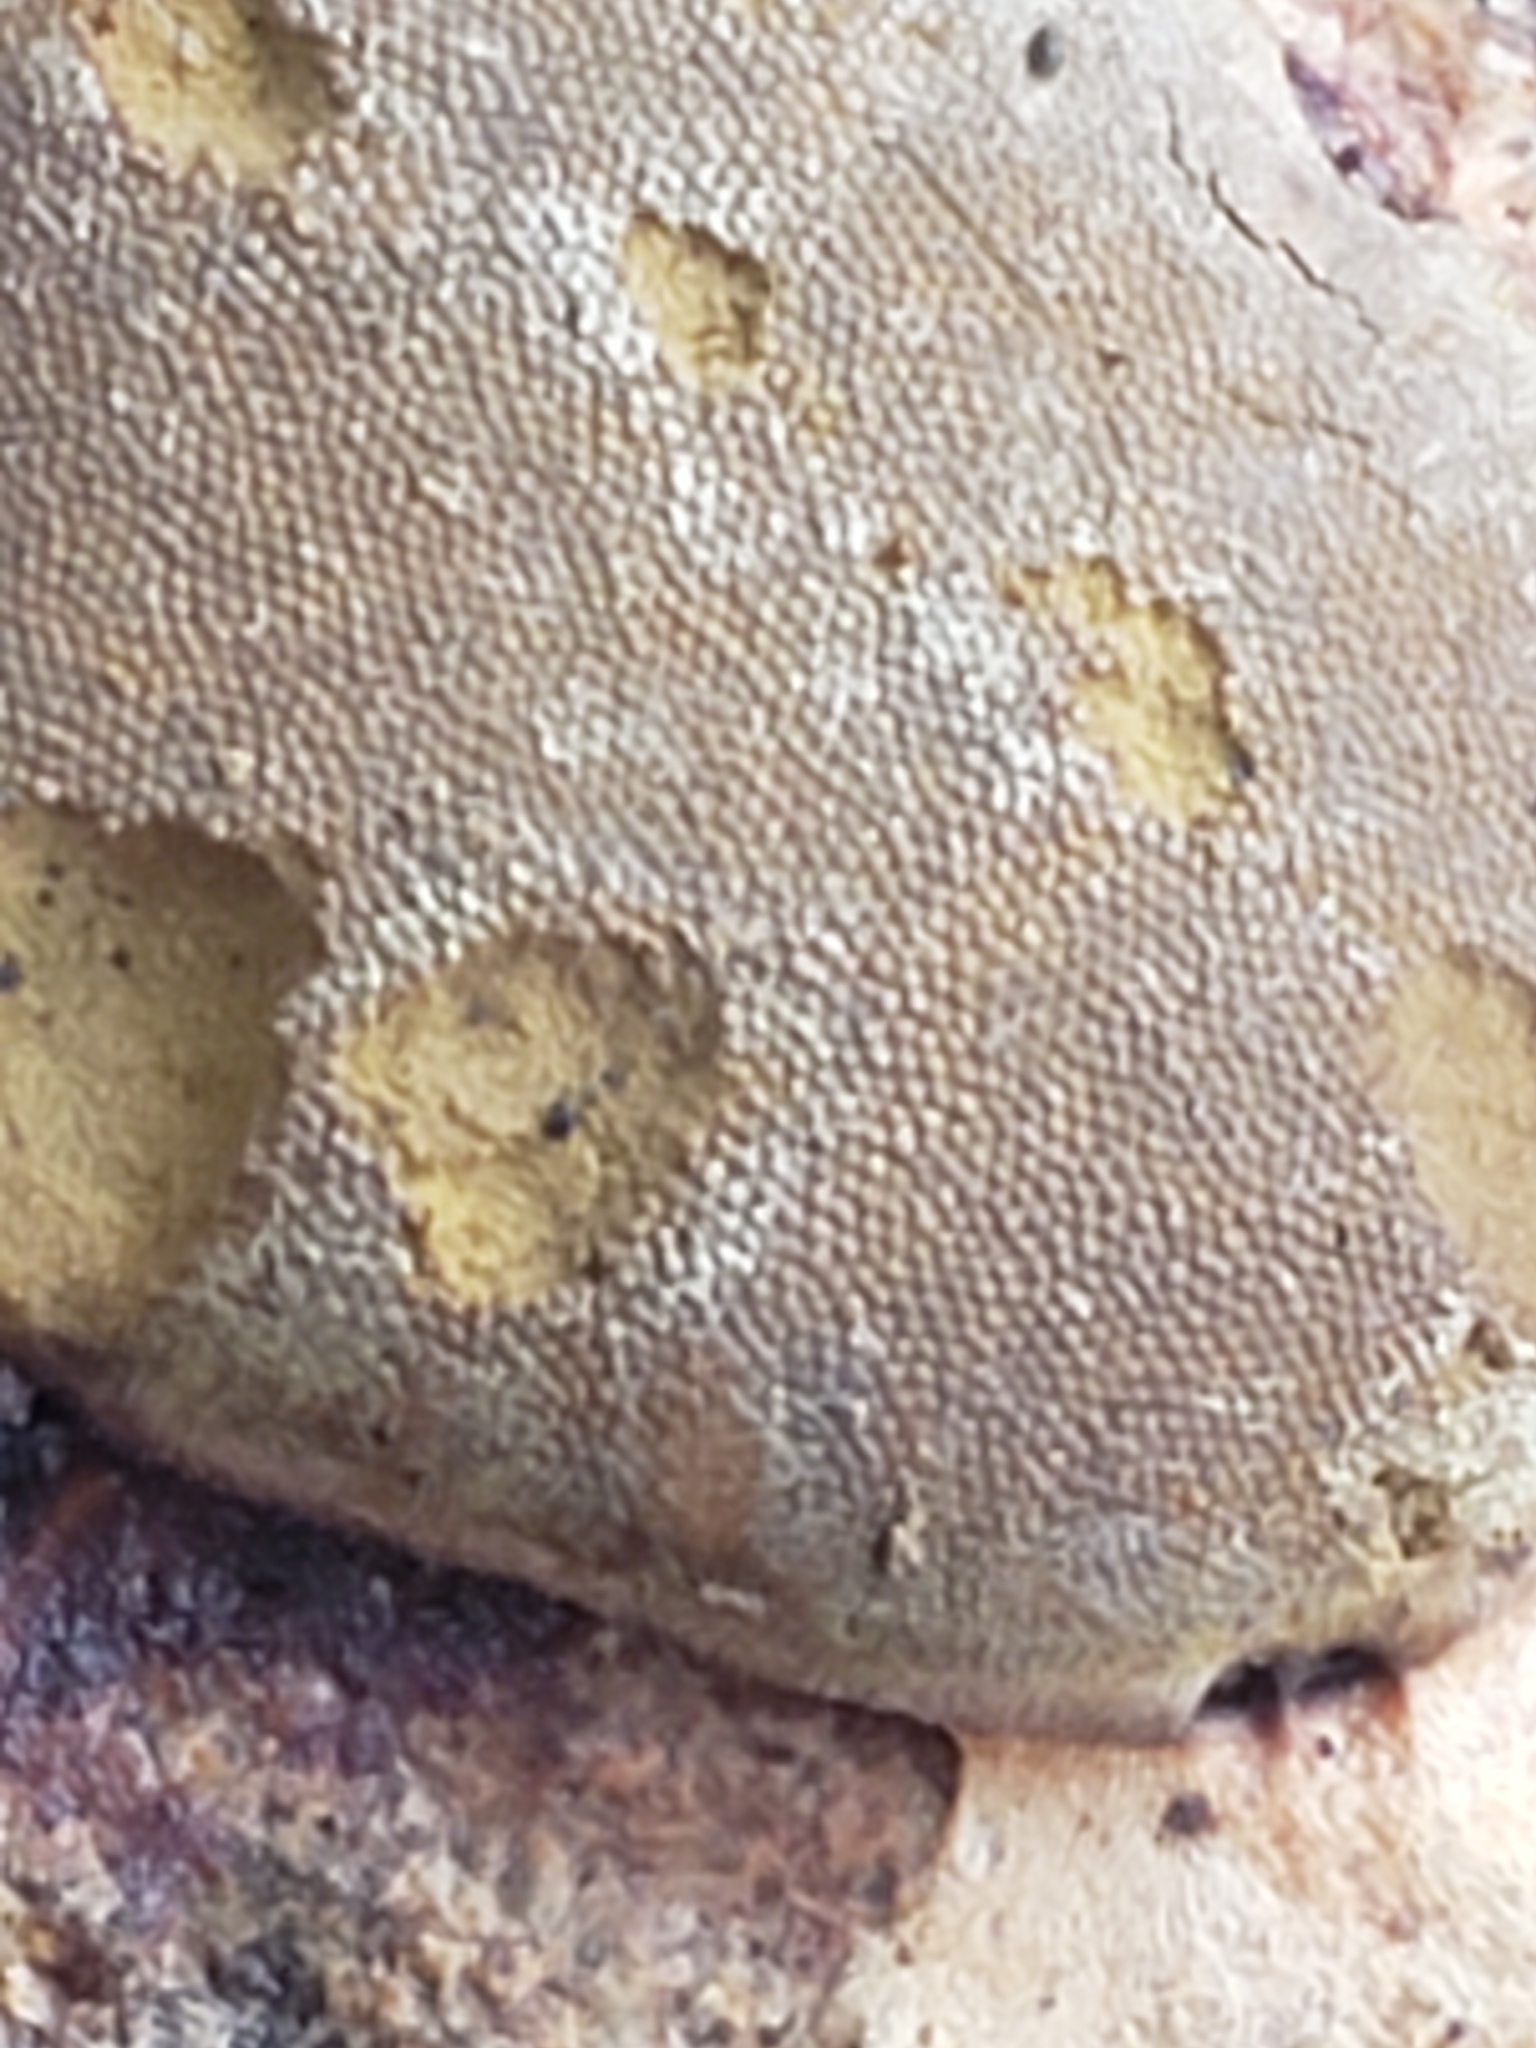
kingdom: Protozoa
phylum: Mycetozoa
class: Myxomycetes
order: Trichiales
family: Dictydiaethaliaceae
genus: Dictydiaethalium
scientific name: Dictydiaethalium plumbeum
